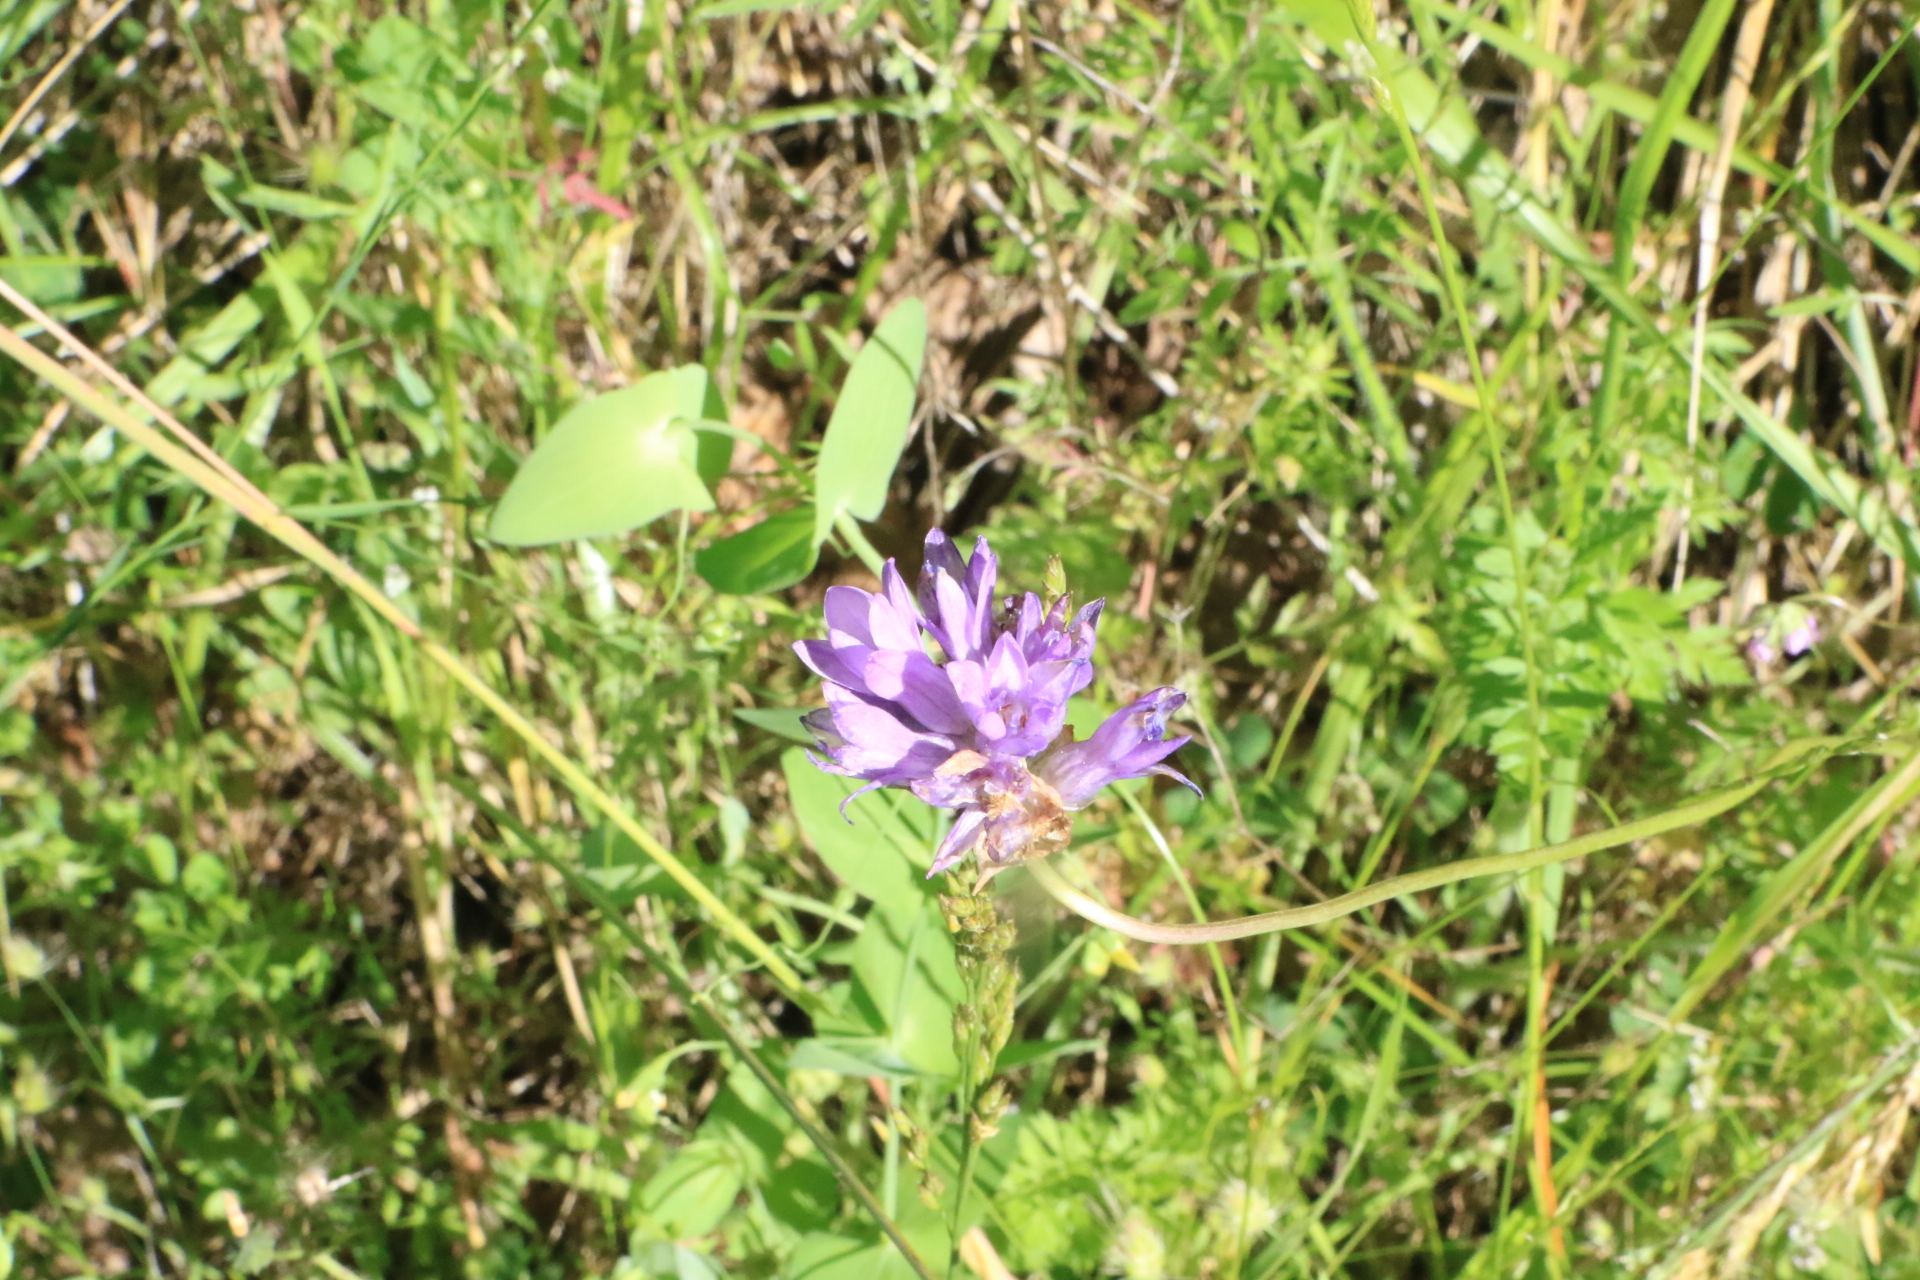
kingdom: Plantae
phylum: Tracheophyta
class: Liliopsida
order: Asparagales
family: Asparagaceae
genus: Dichelostemma
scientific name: Dichelostemma congestum
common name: Fork-tooth ookow
